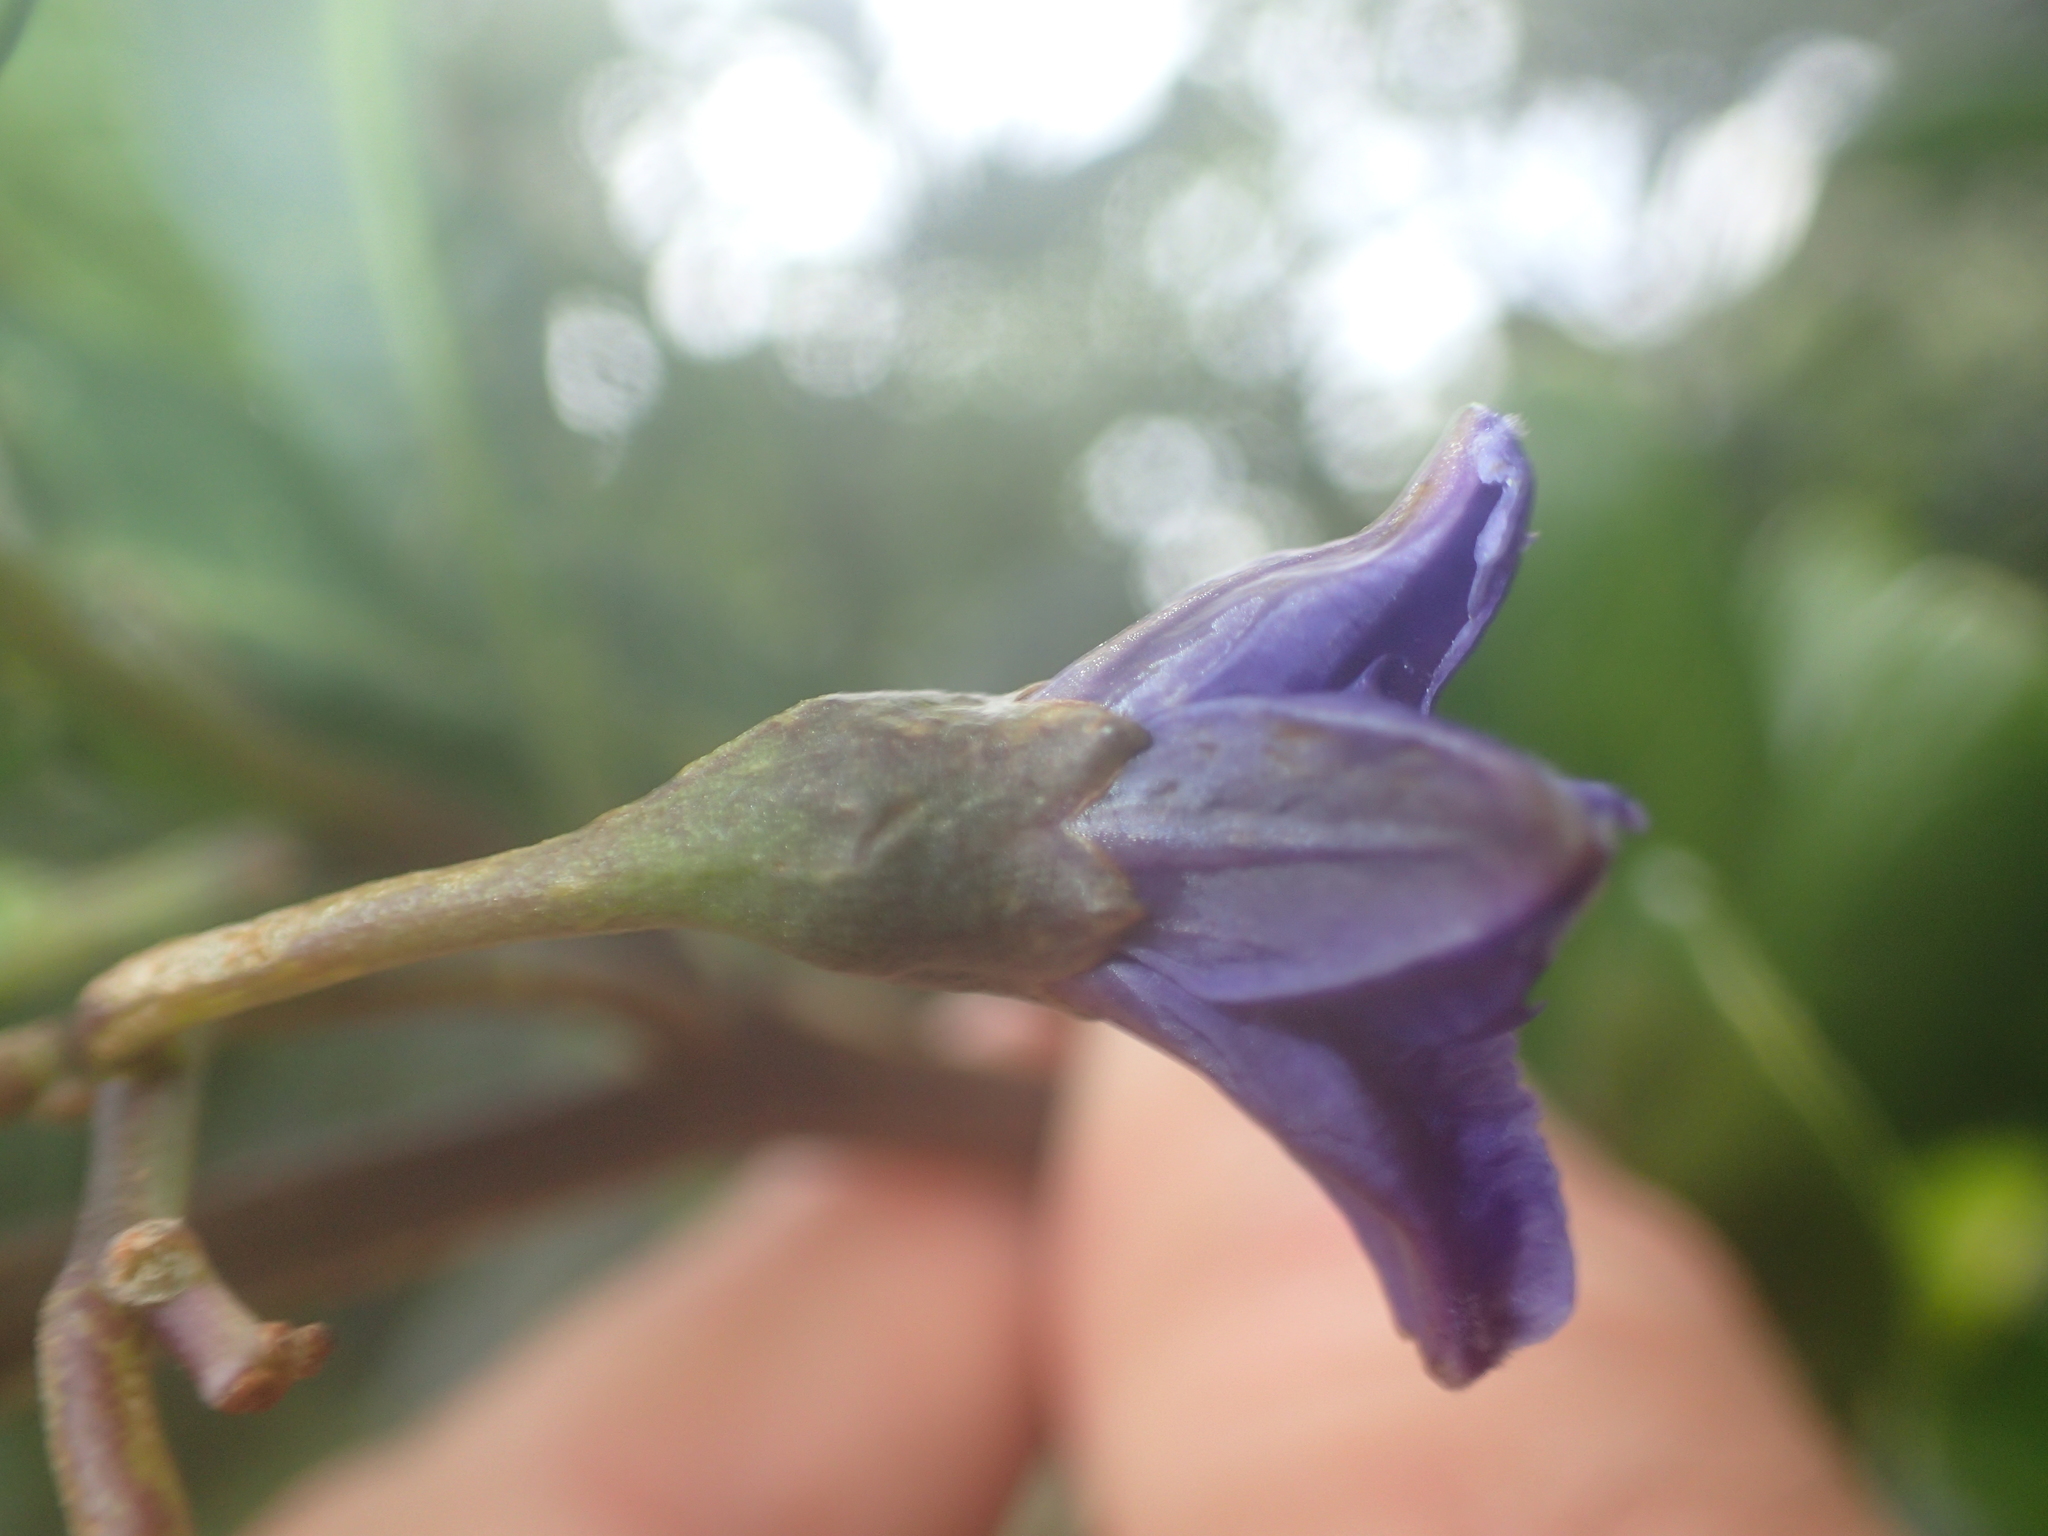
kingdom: Plantae
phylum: Tracheophyta
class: Magnoliopsida
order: Solanales
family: Solanaceae
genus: Solanum
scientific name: Solanum laciniatum
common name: Kangaroo-apple
